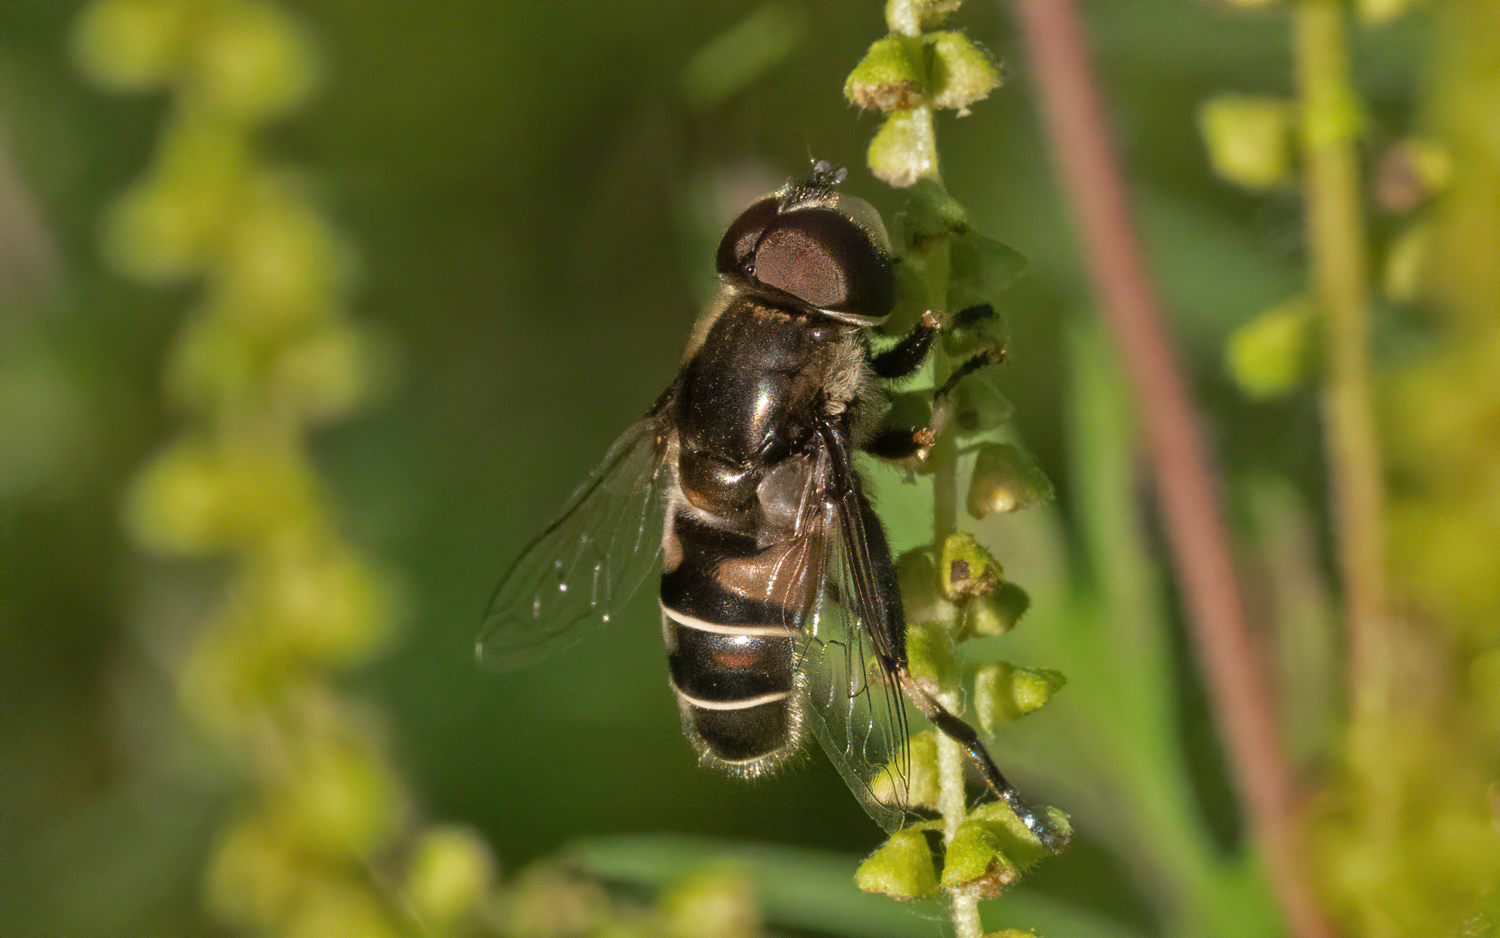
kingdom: Animalia
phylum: Arthropoda
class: Insecta
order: Diptera
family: Syrphidae
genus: Eristalis
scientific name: Eristalis dimidiata
